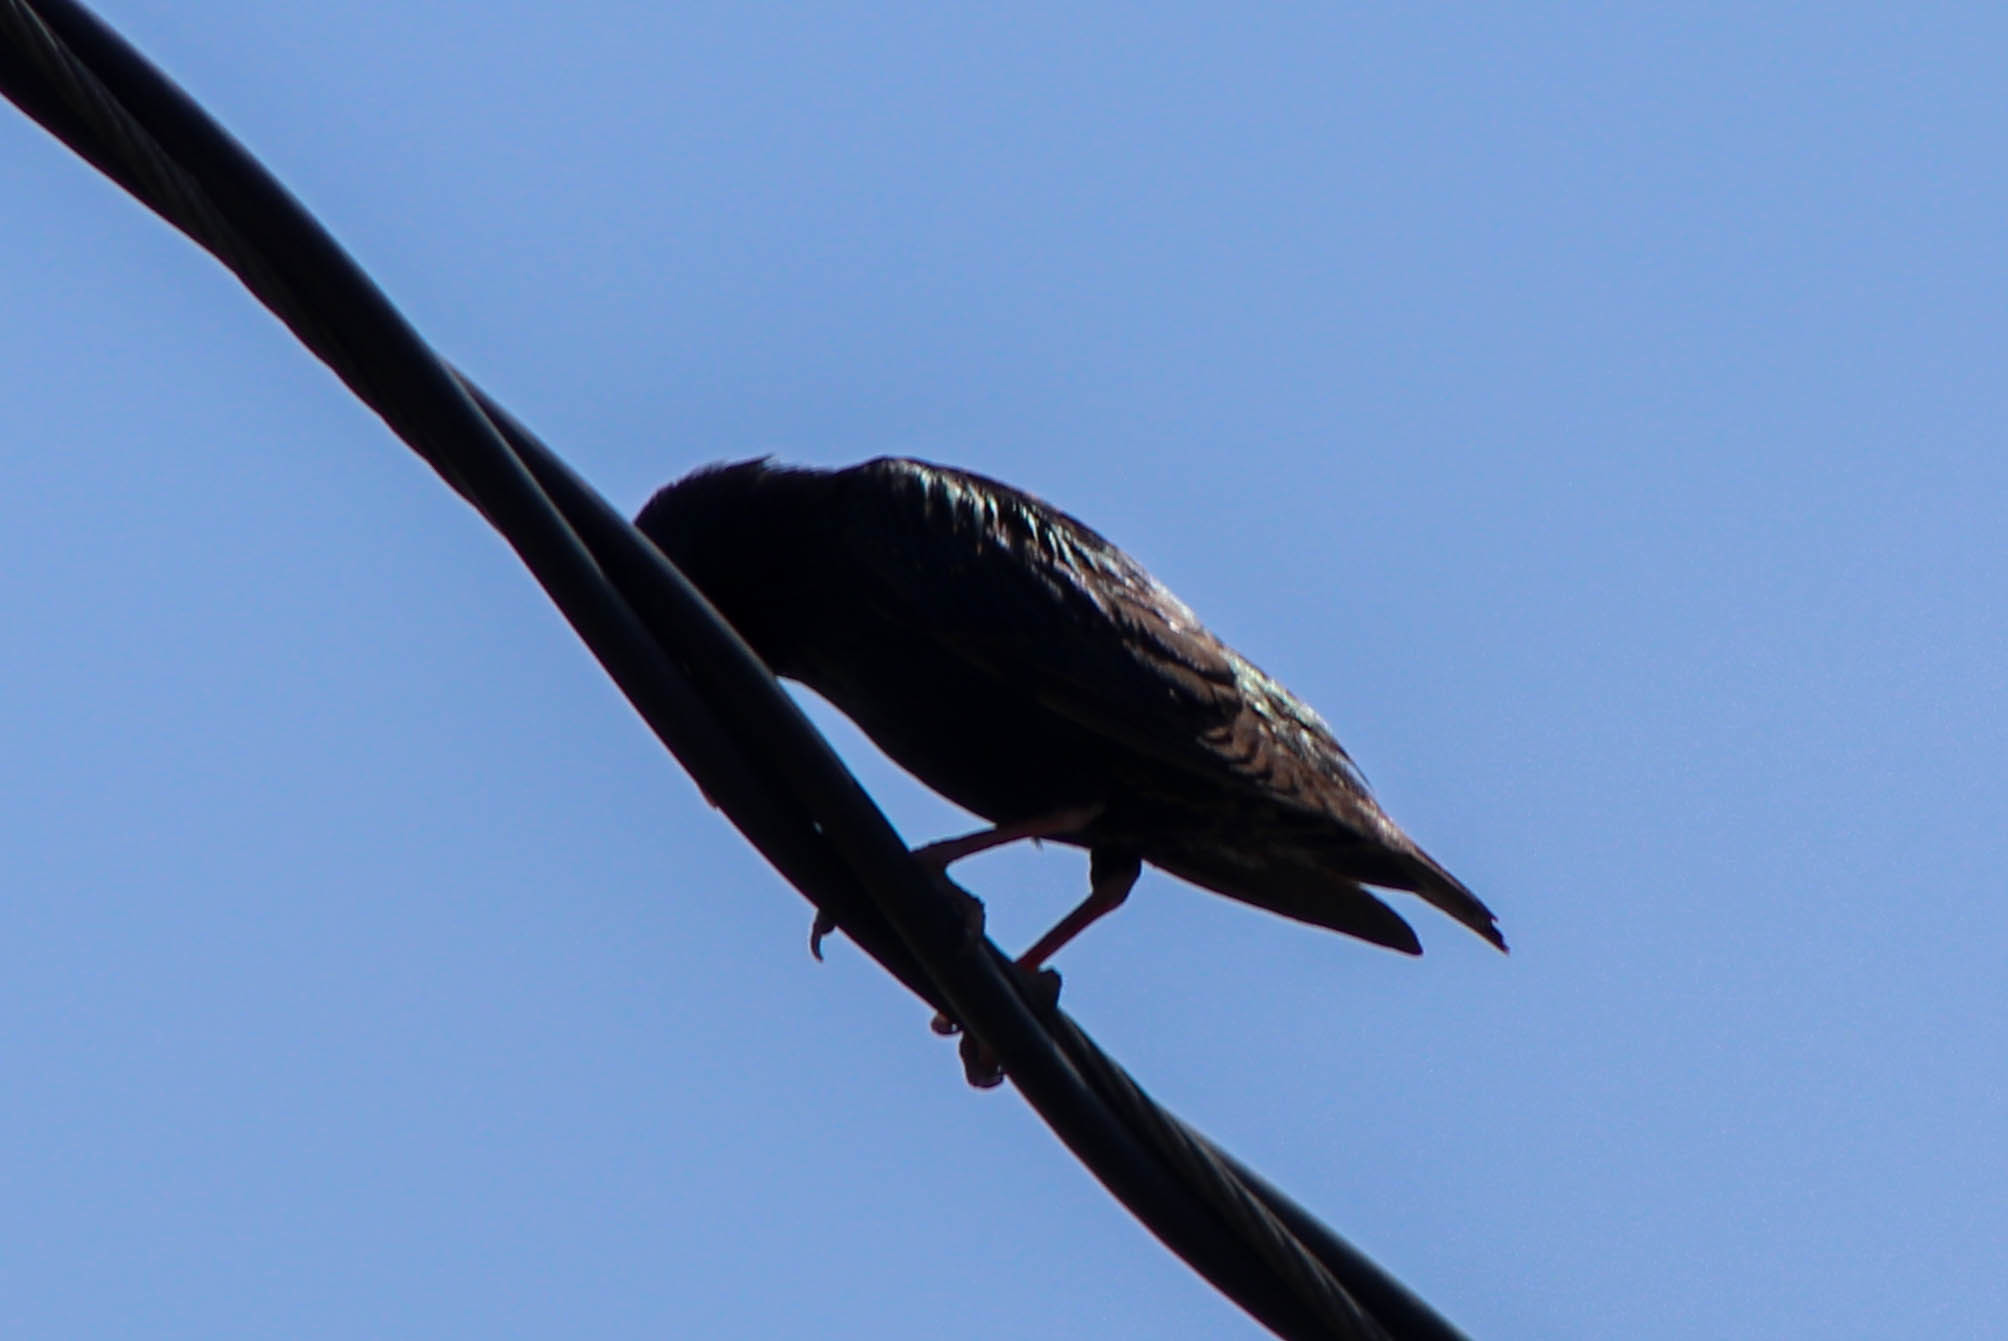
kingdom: Animalia
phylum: Chordata
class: Aves
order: Passeriformes
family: Sturnidae
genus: Sturnus
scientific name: Sturnus vulgaris
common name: Common starling
